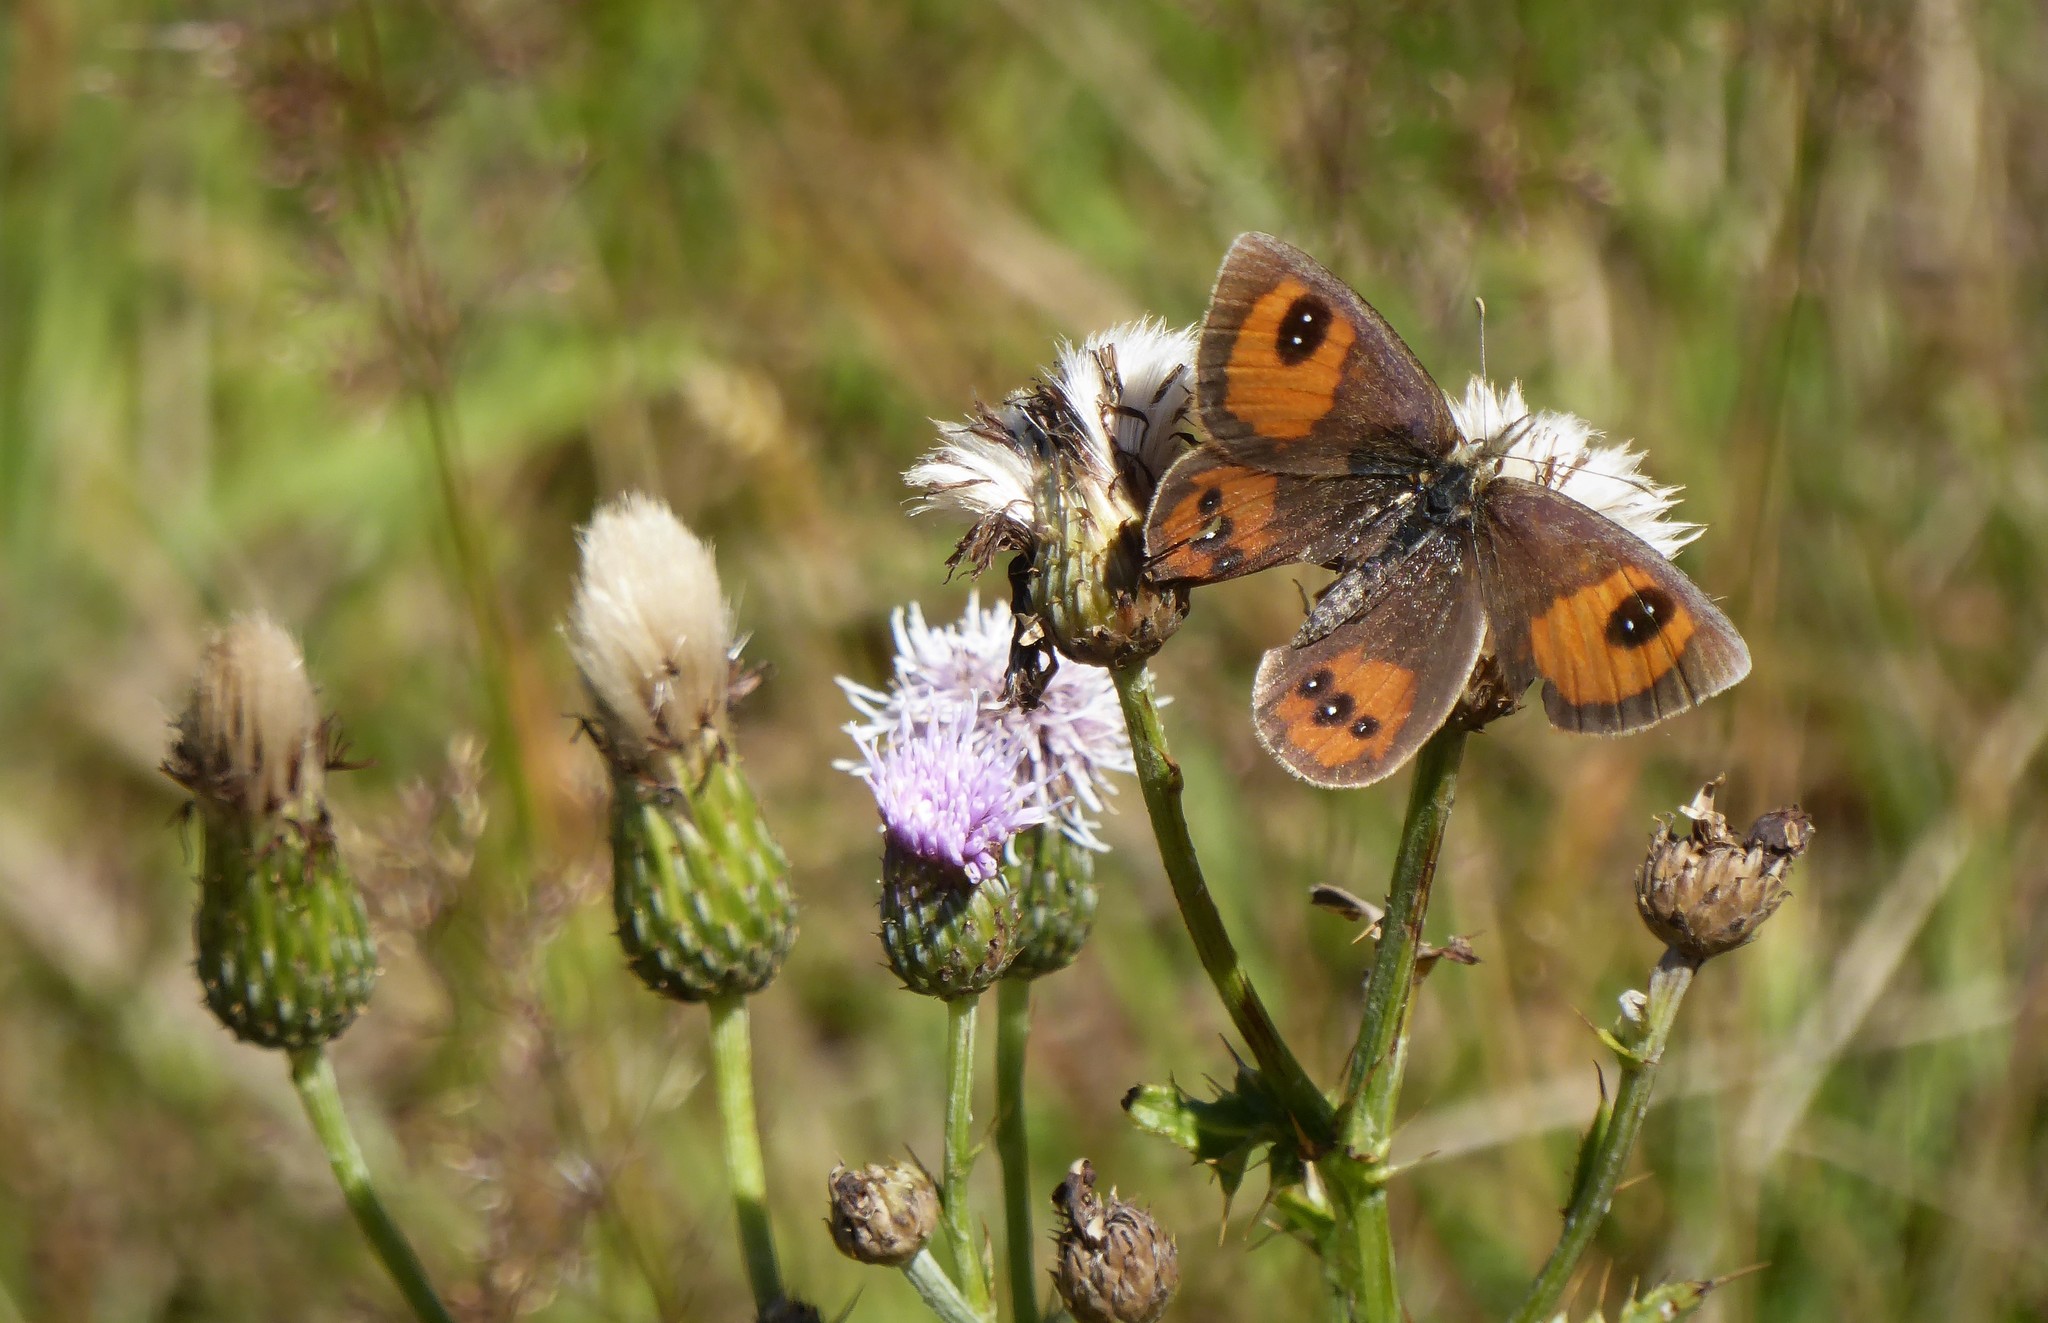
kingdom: Animalia
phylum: Arthropoda
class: Insecta
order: Lepidoptera
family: Nymphalidae
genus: Argyrophenga
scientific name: Argyrophenga antipodum
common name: Common tussock butterfly
